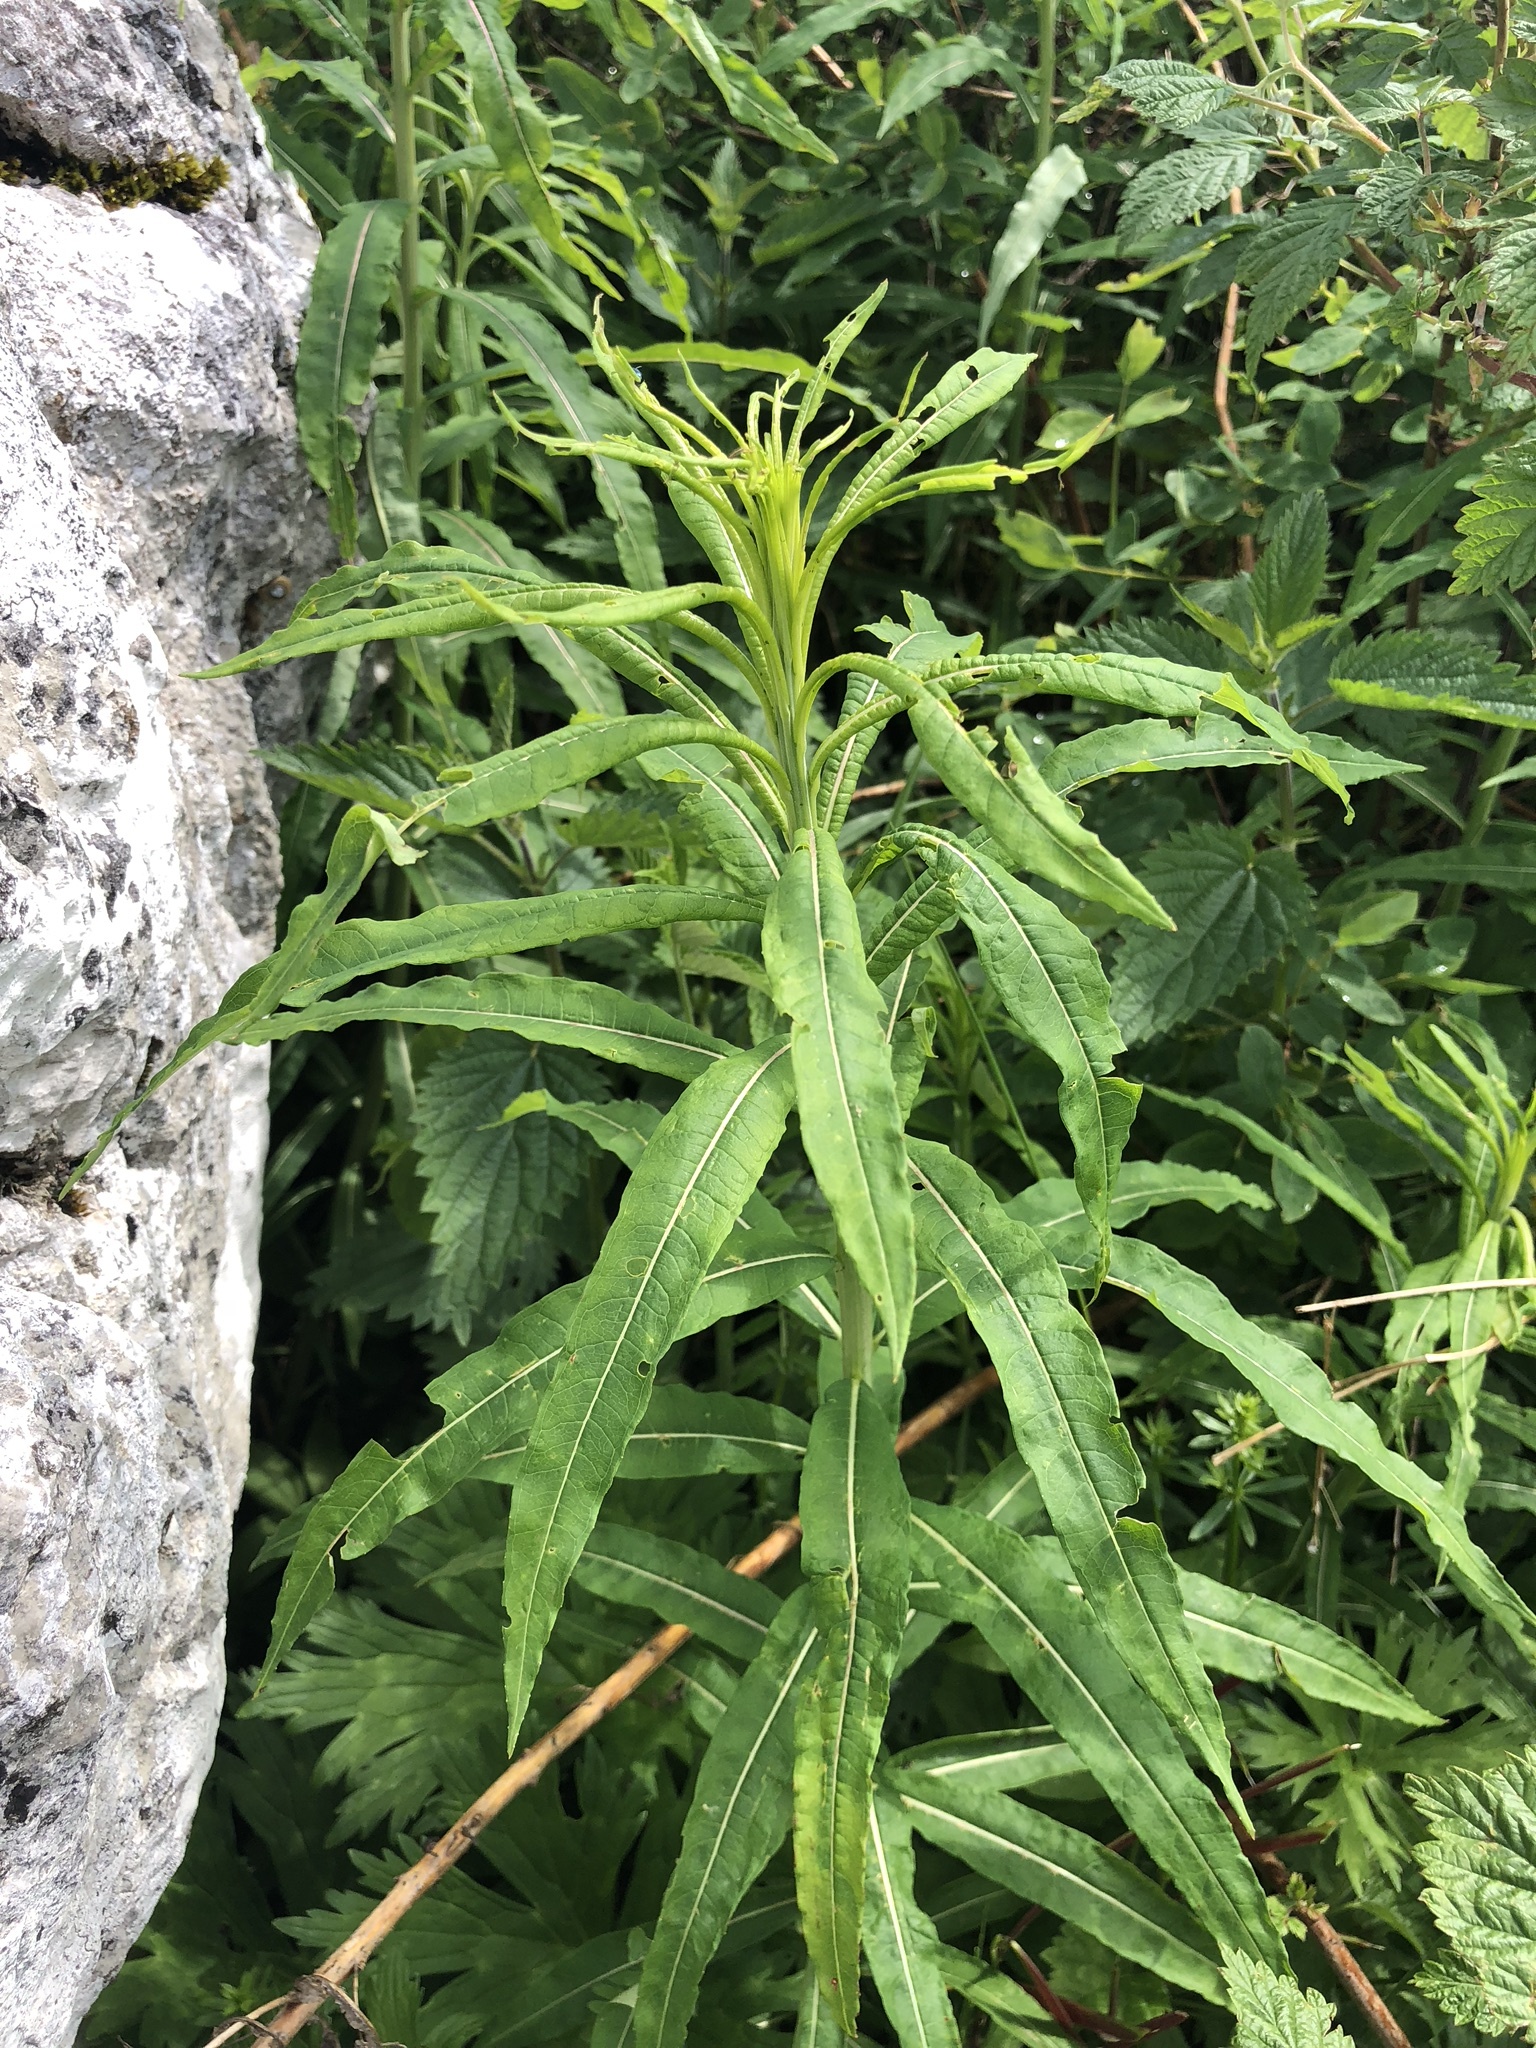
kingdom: Plantae
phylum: Tracheophyta
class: Magnoliopsida
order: Myrtales
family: Onagraceae
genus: Chamaenerion
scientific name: Chamaenerion angustifolium
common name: Fireweed
